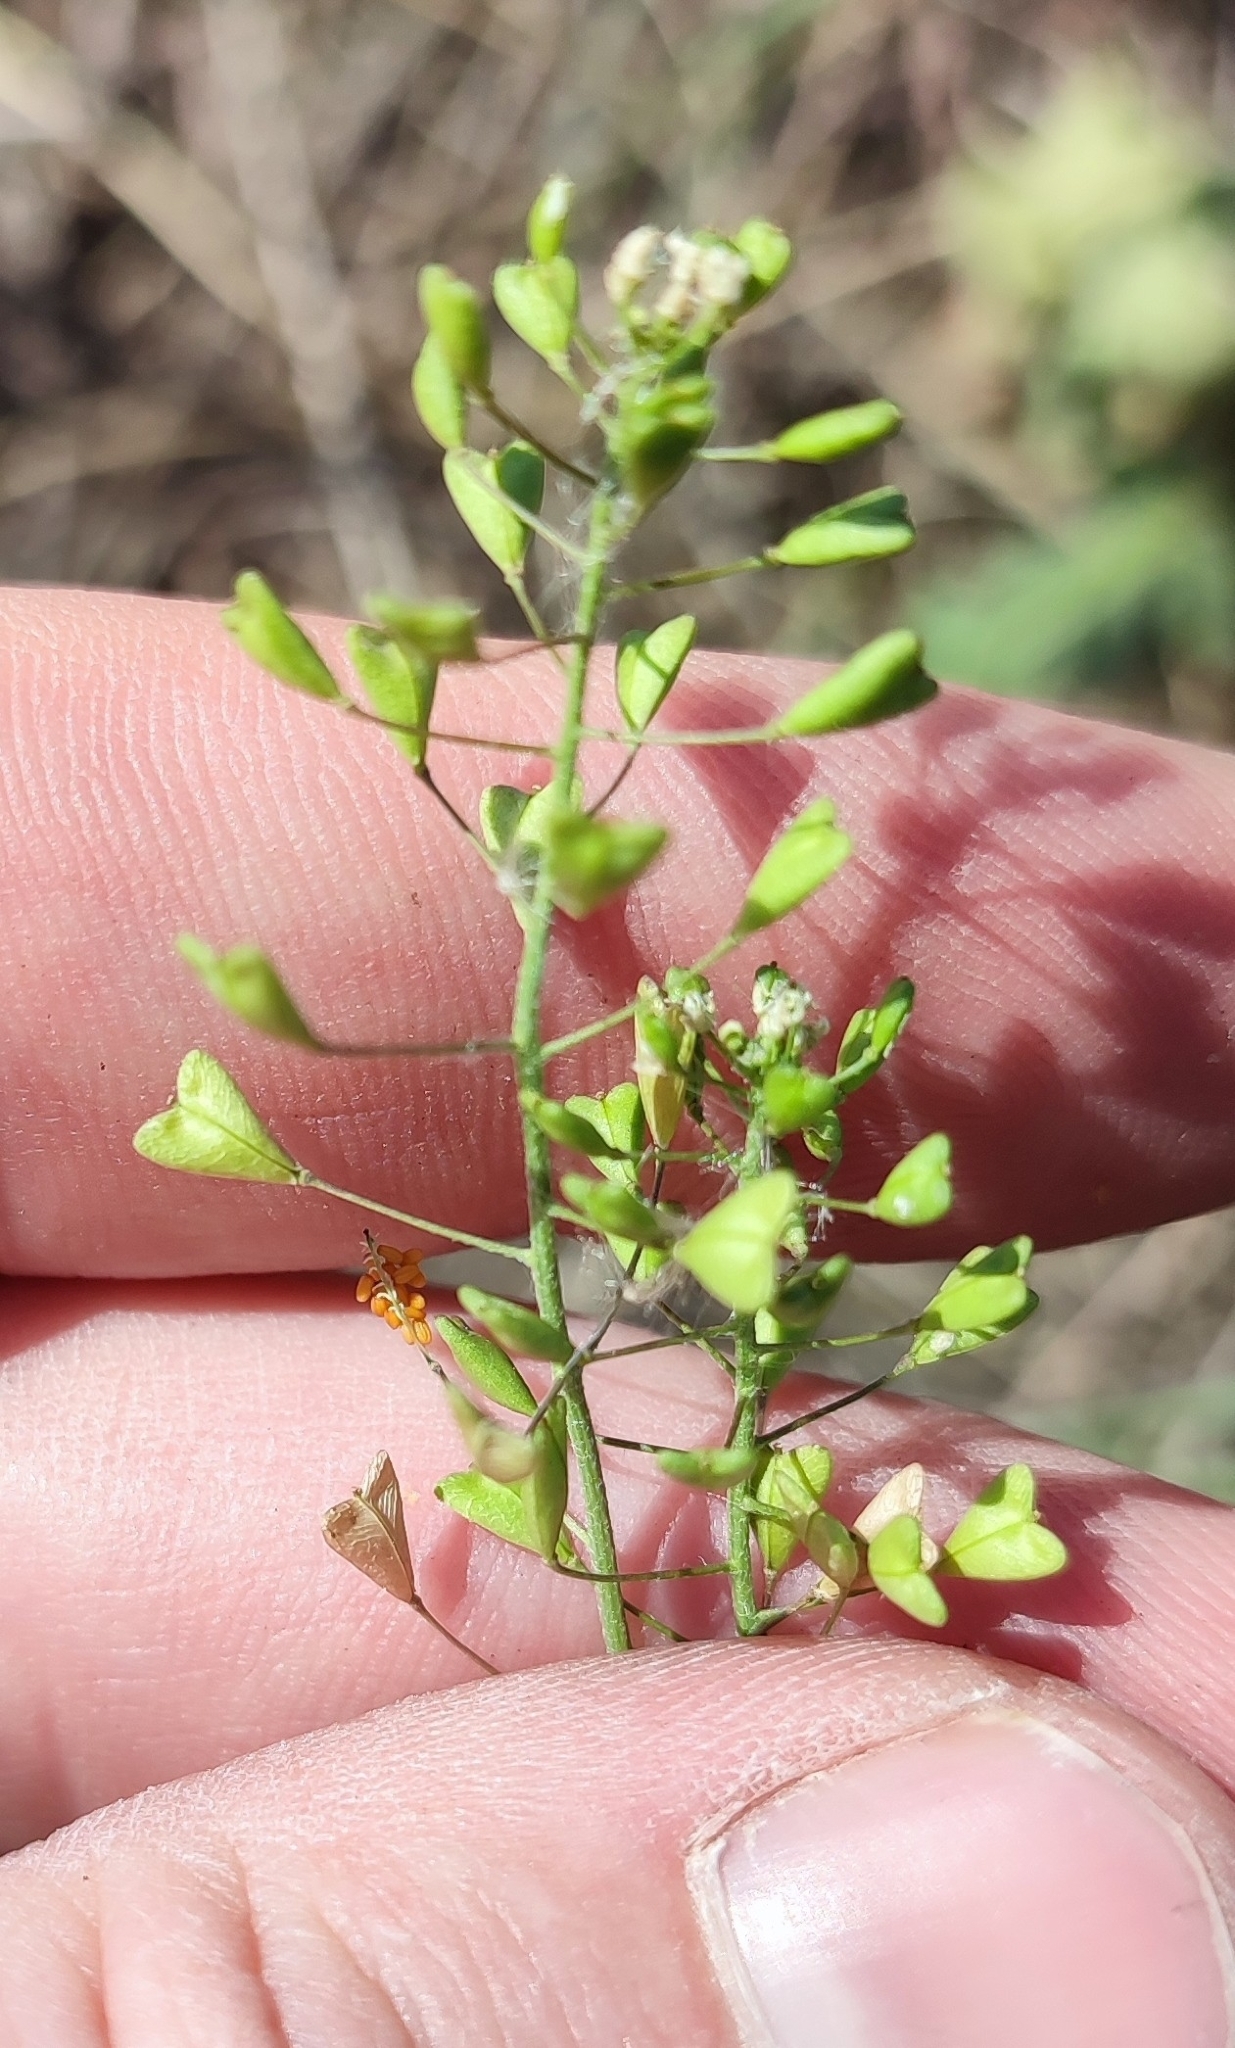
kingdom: Plantae
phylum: Tracheophyta
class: Magnoliopsida
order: Brassicales
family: Brassicaceae
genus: Capsella
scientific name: Capsella bursa-pastoris
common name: Shepherd's purse
